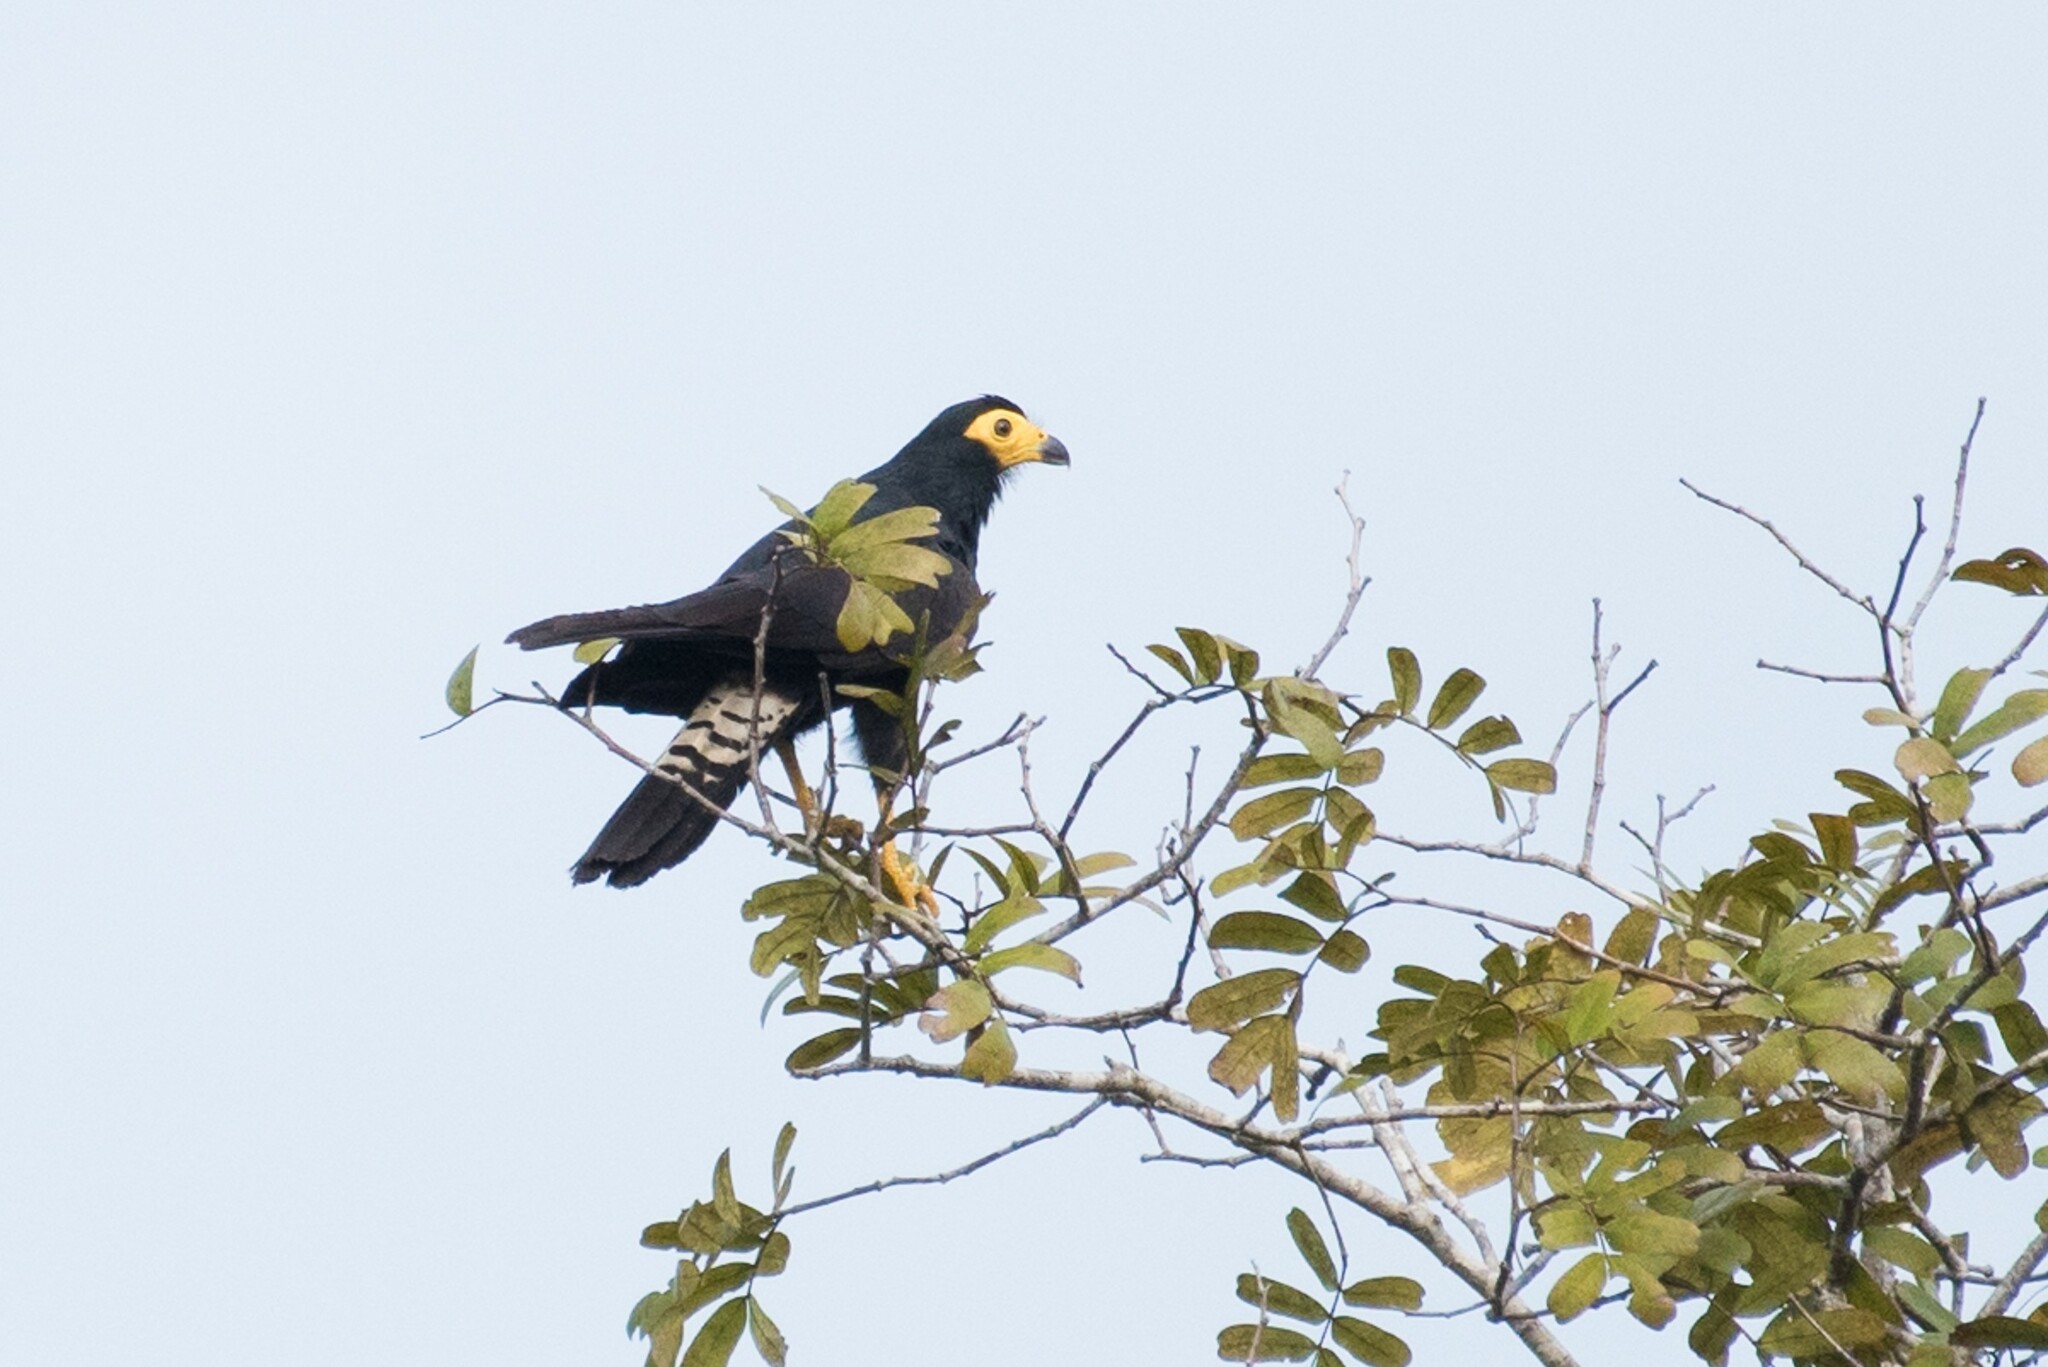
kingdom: Animalia
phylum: Chordata
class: Aves
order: Falconiformes
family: Falconidae
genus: Daptrius
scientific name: Daptrius ater
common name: Black caracara
